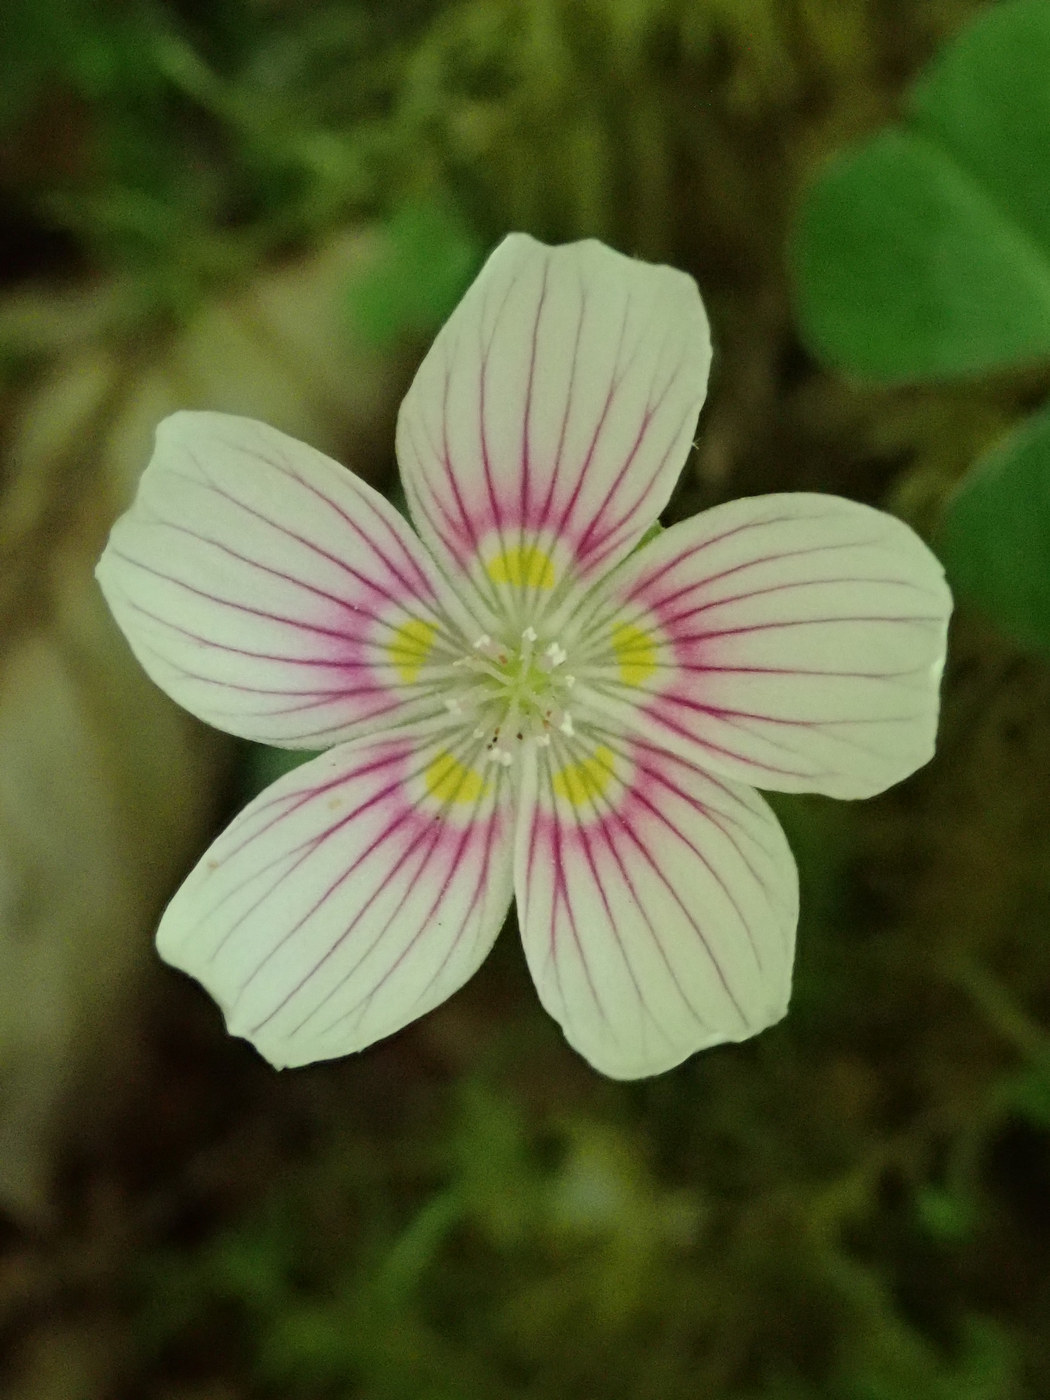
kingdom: Plantae
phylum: Tracheophyta
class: Magnoliopsida
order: Oxalidales
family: Oxalidaceae
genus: Oxalis
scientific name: Oxalis montana
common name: American wood-sorrel
